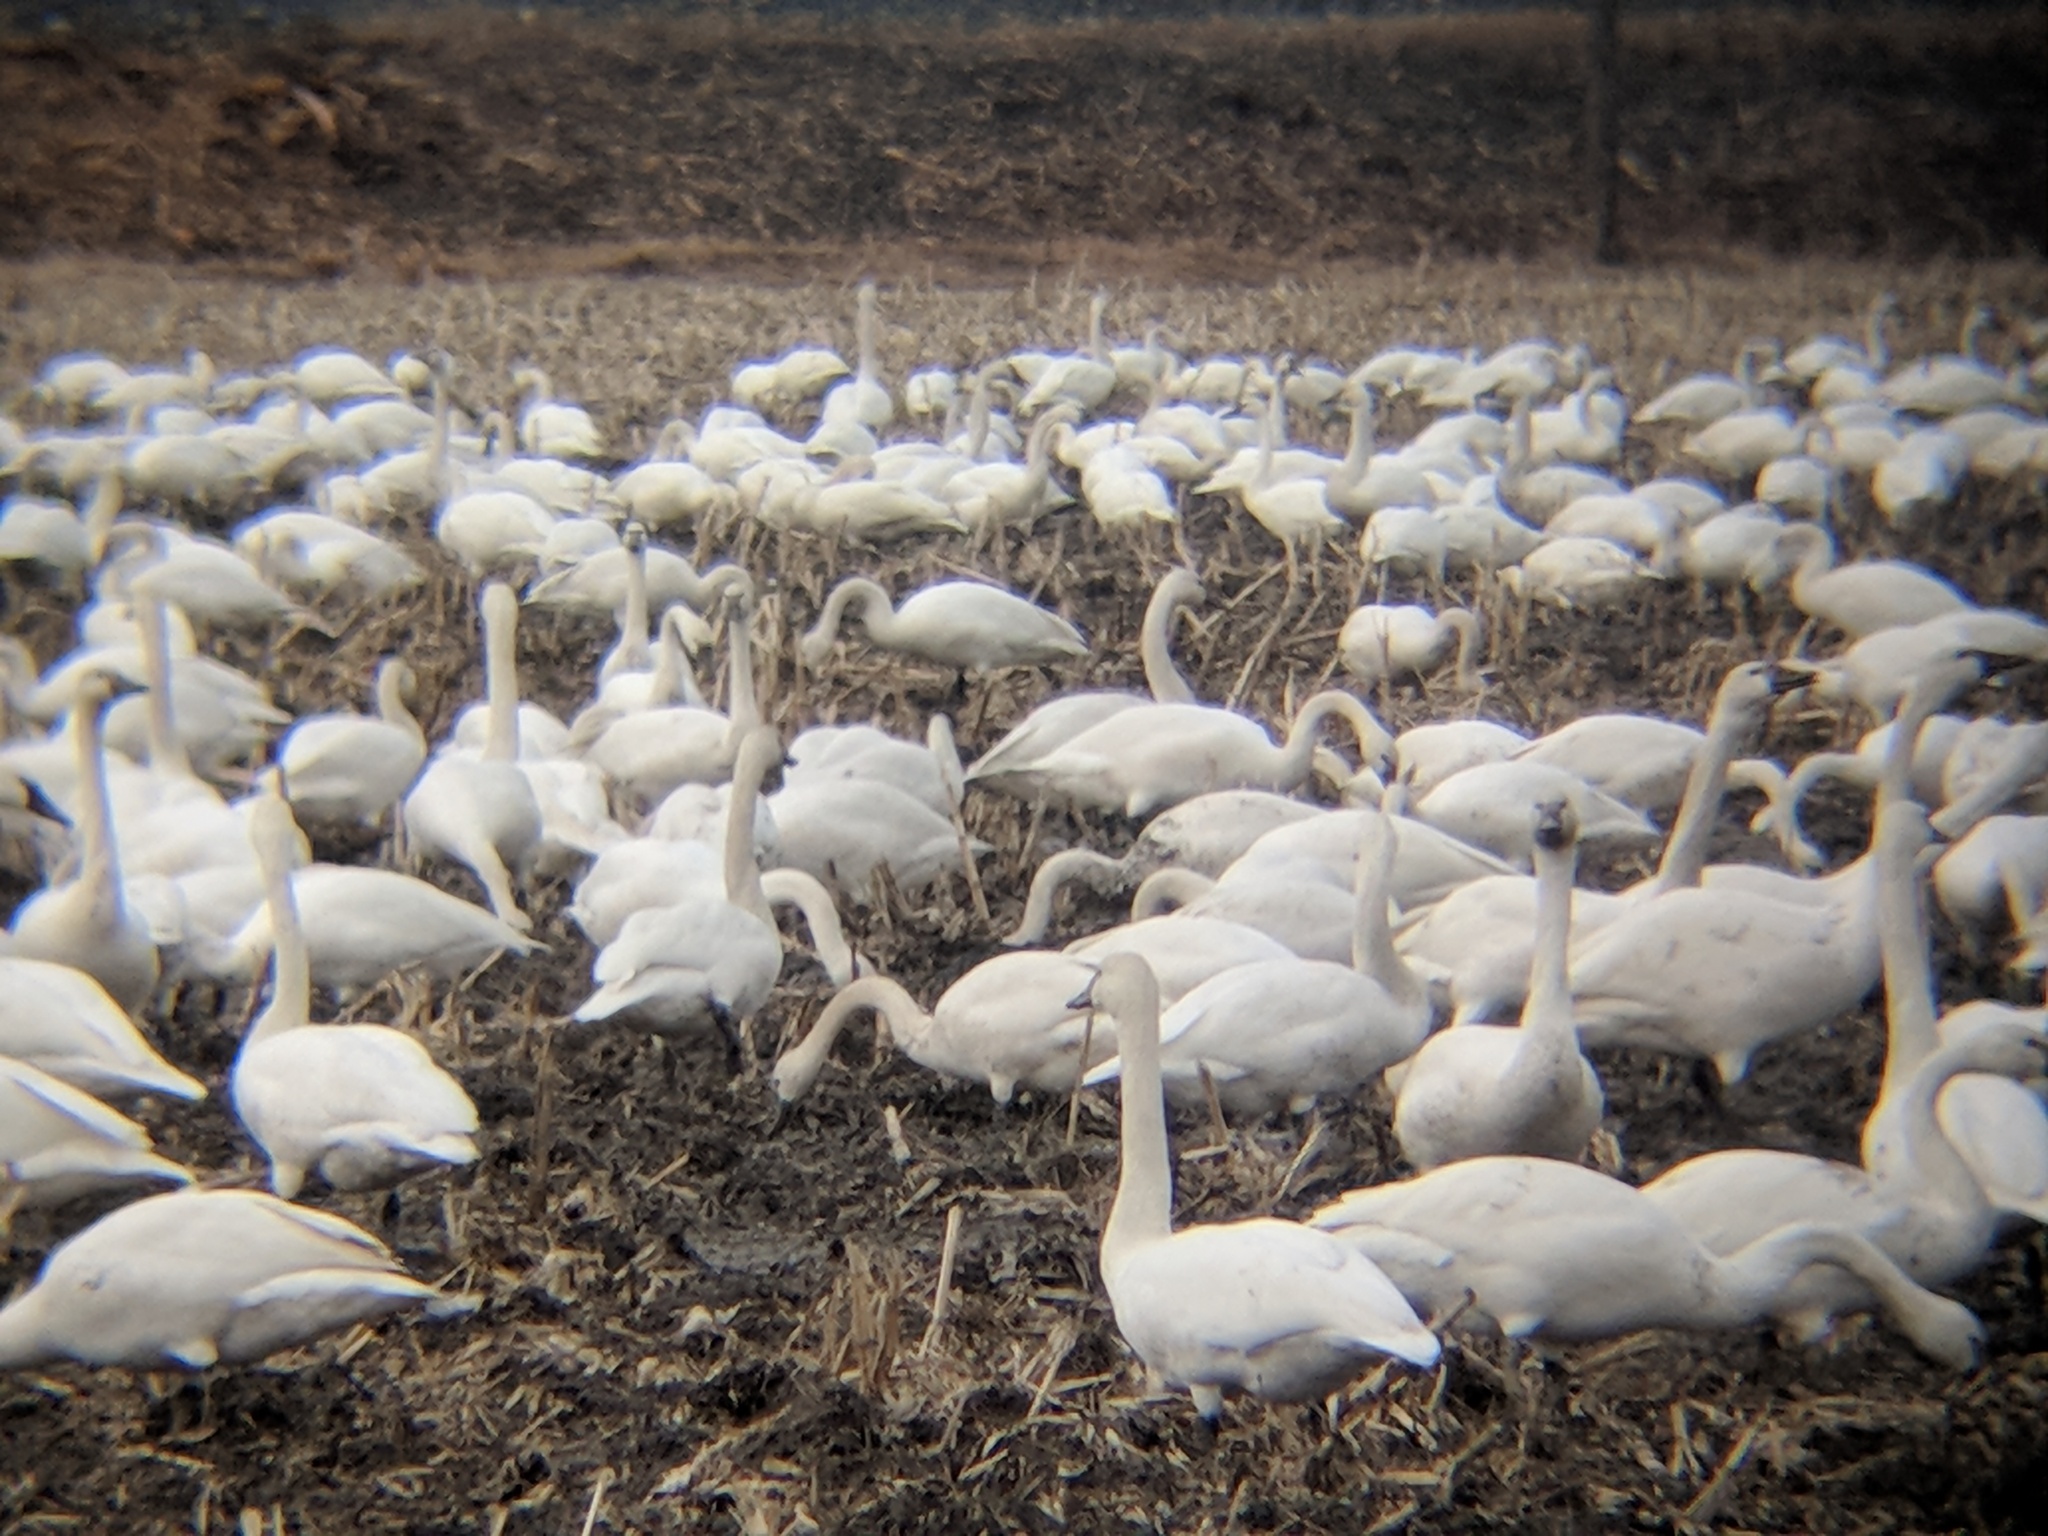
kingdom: Animalia
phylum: Chordata
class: Aves
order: Anseriformes
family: Anatidae
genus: Cygnus
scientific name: Cygnus columbianus
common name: Tundra swan
